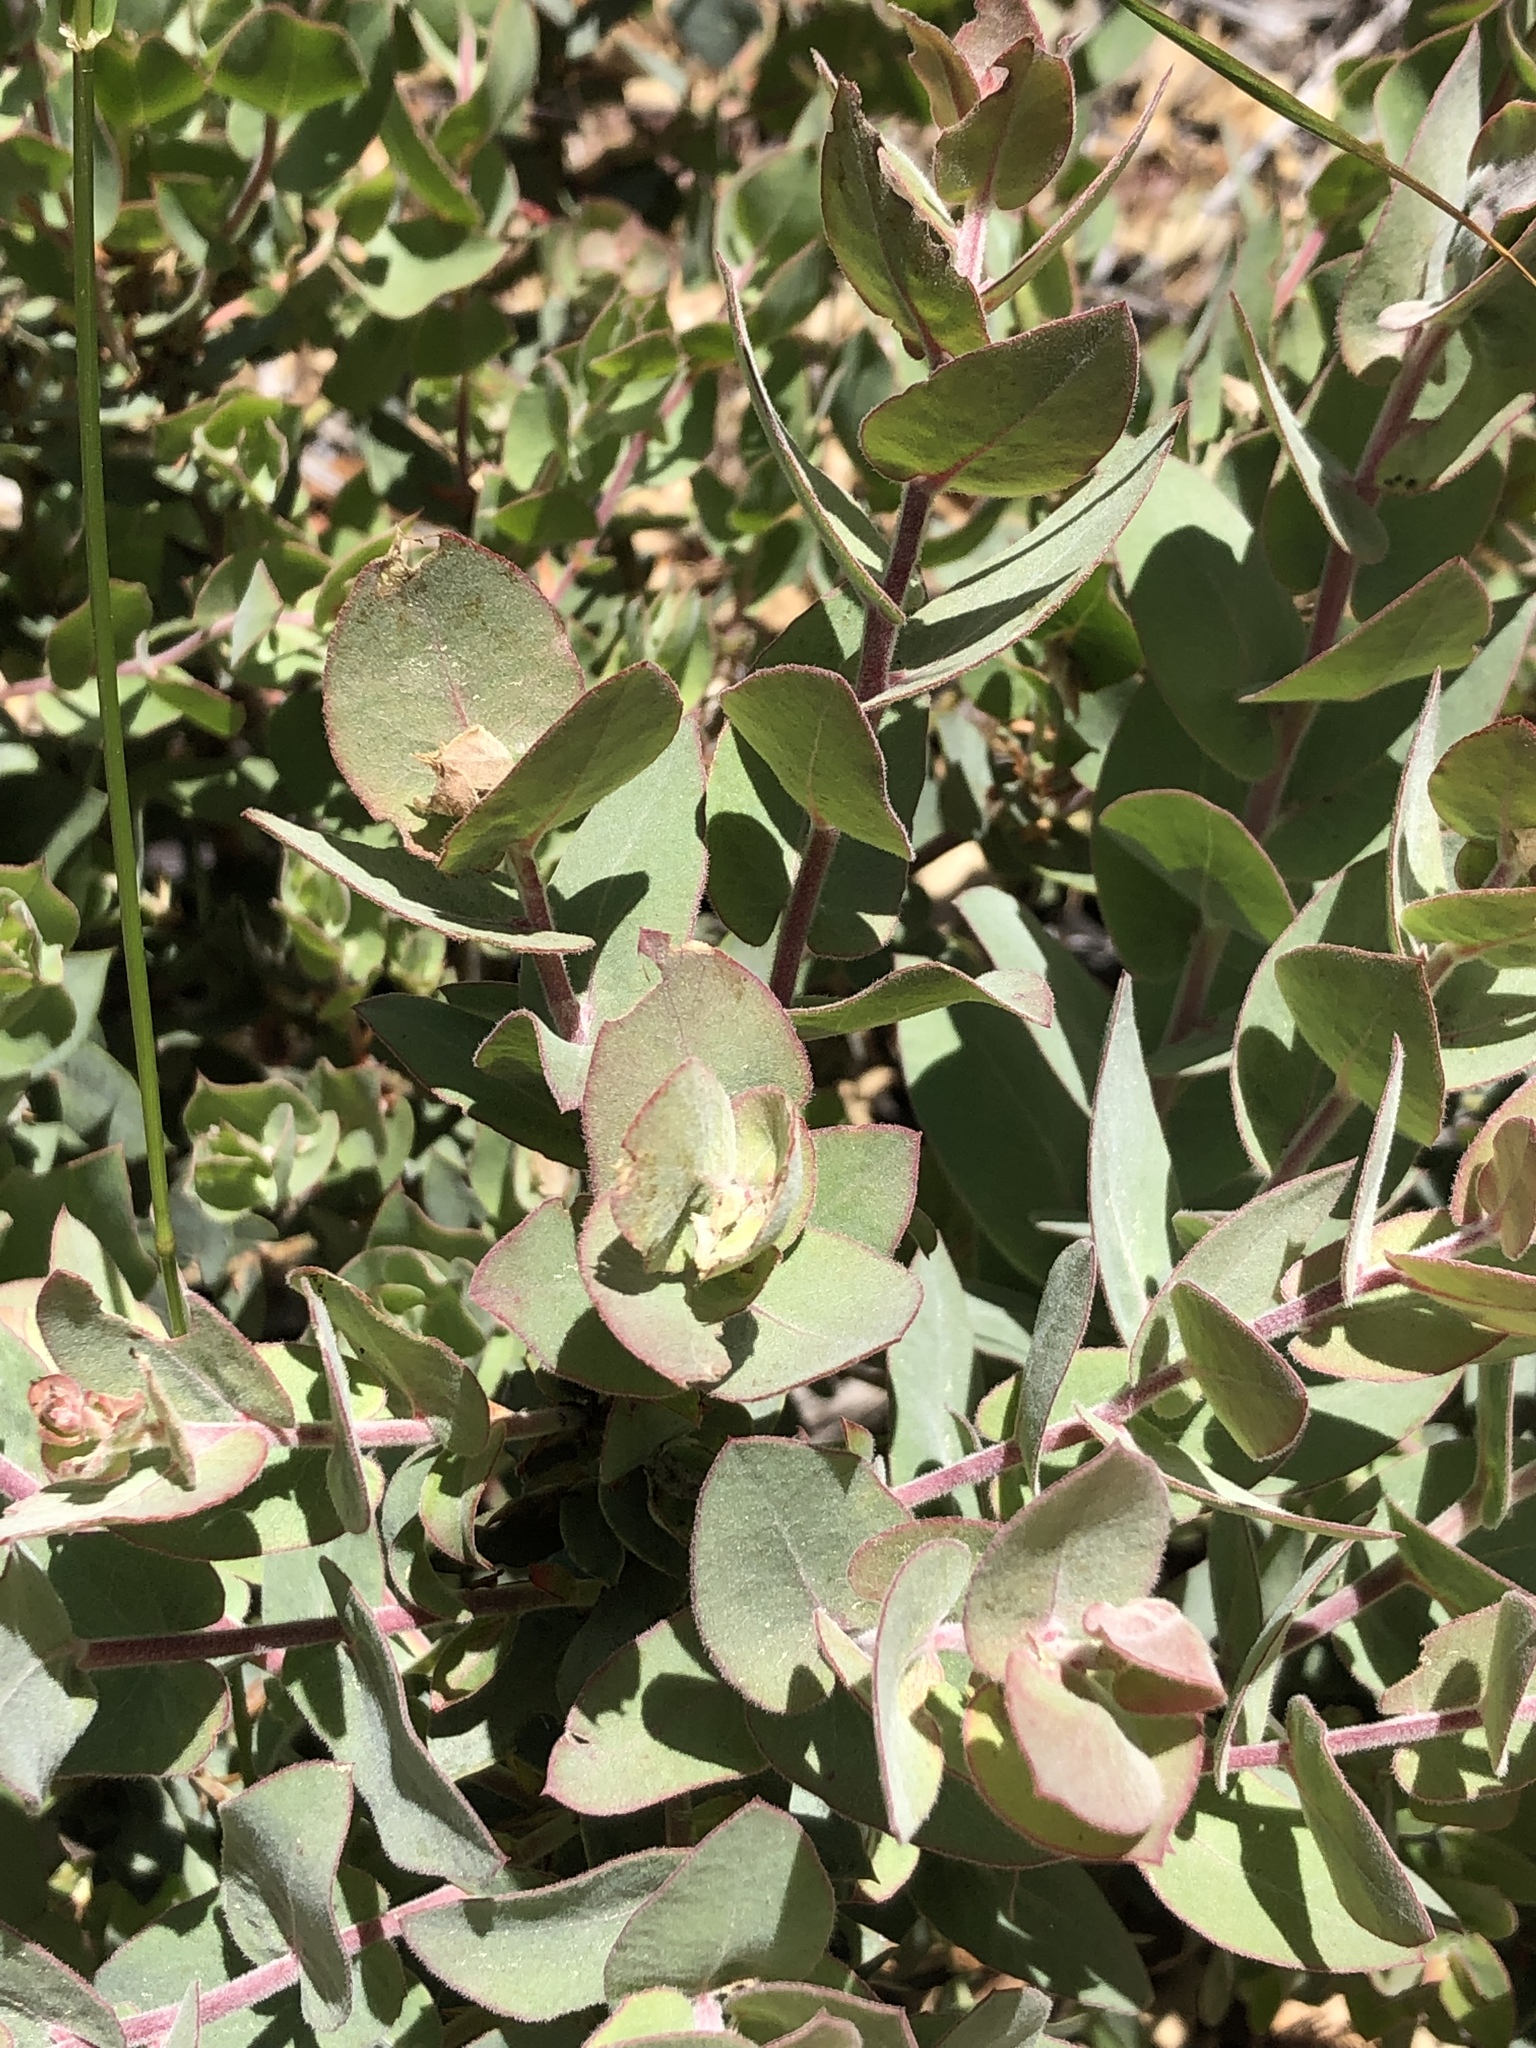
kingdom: Plantae
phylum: Tracheophyta
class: Magnoliopsida
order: Ericales
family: Ericaceae
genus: Arctostaphylos
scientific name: Arctostaphylos luciana
